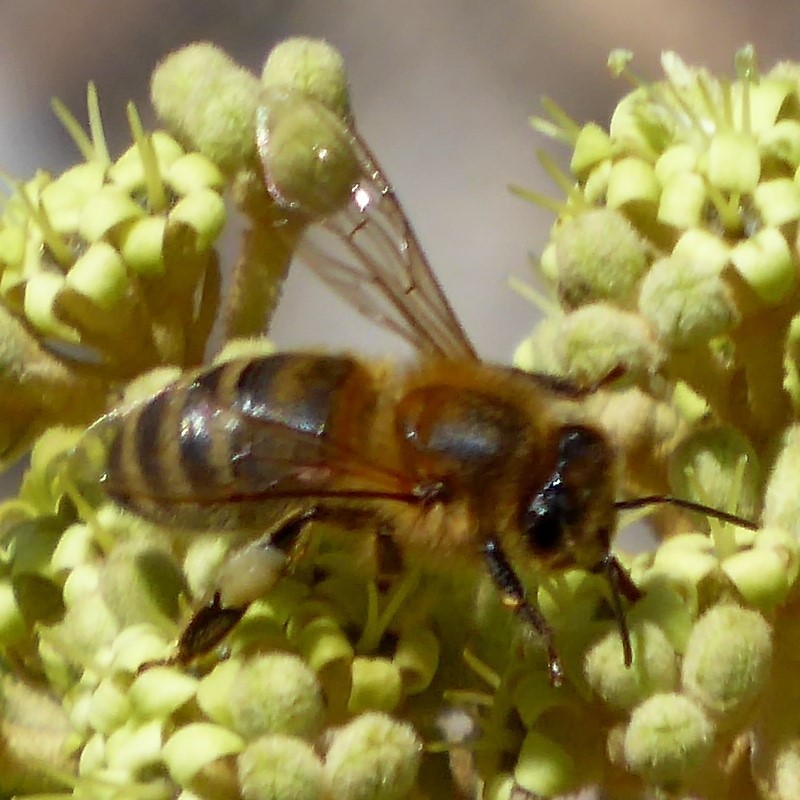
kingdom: Animalia
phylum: Arthropoda
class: Insecta
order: Hymenoptera
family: Apidae
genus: Apis
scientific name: Apis mellifera
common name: Honey bee
